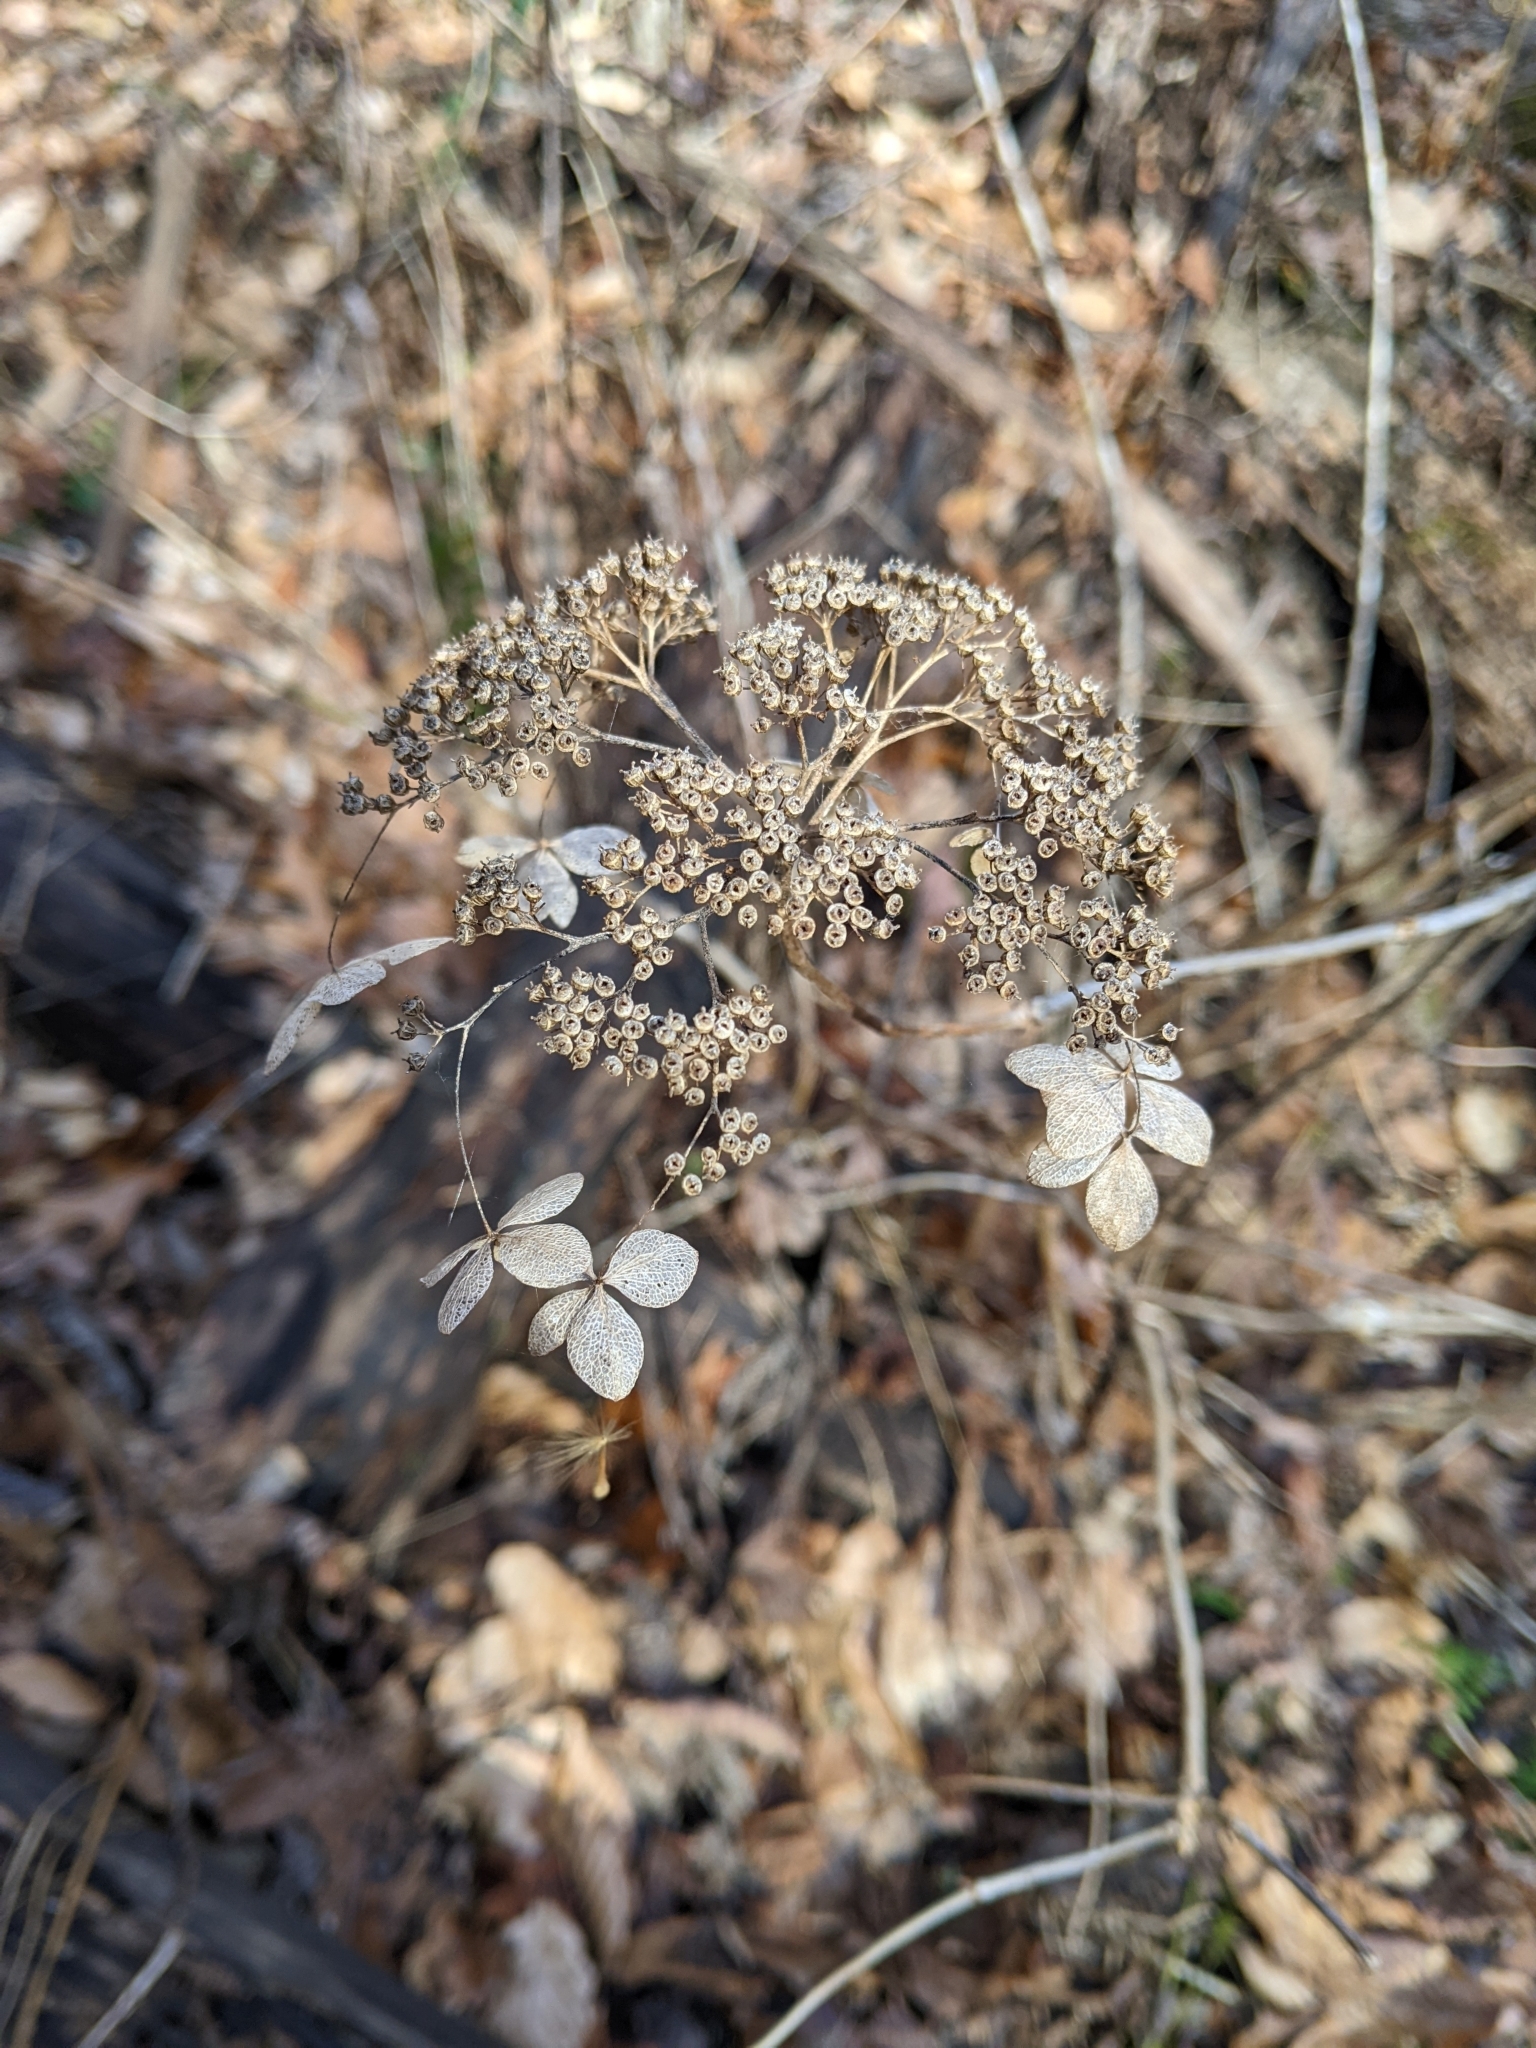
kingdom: Plantae
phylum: Tracheophyta
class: Magnoliopsida
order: Cornales
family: Hydrangeaceae
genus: Hydrangea
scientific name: Hydrangea arborescens
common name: Sevenbark
